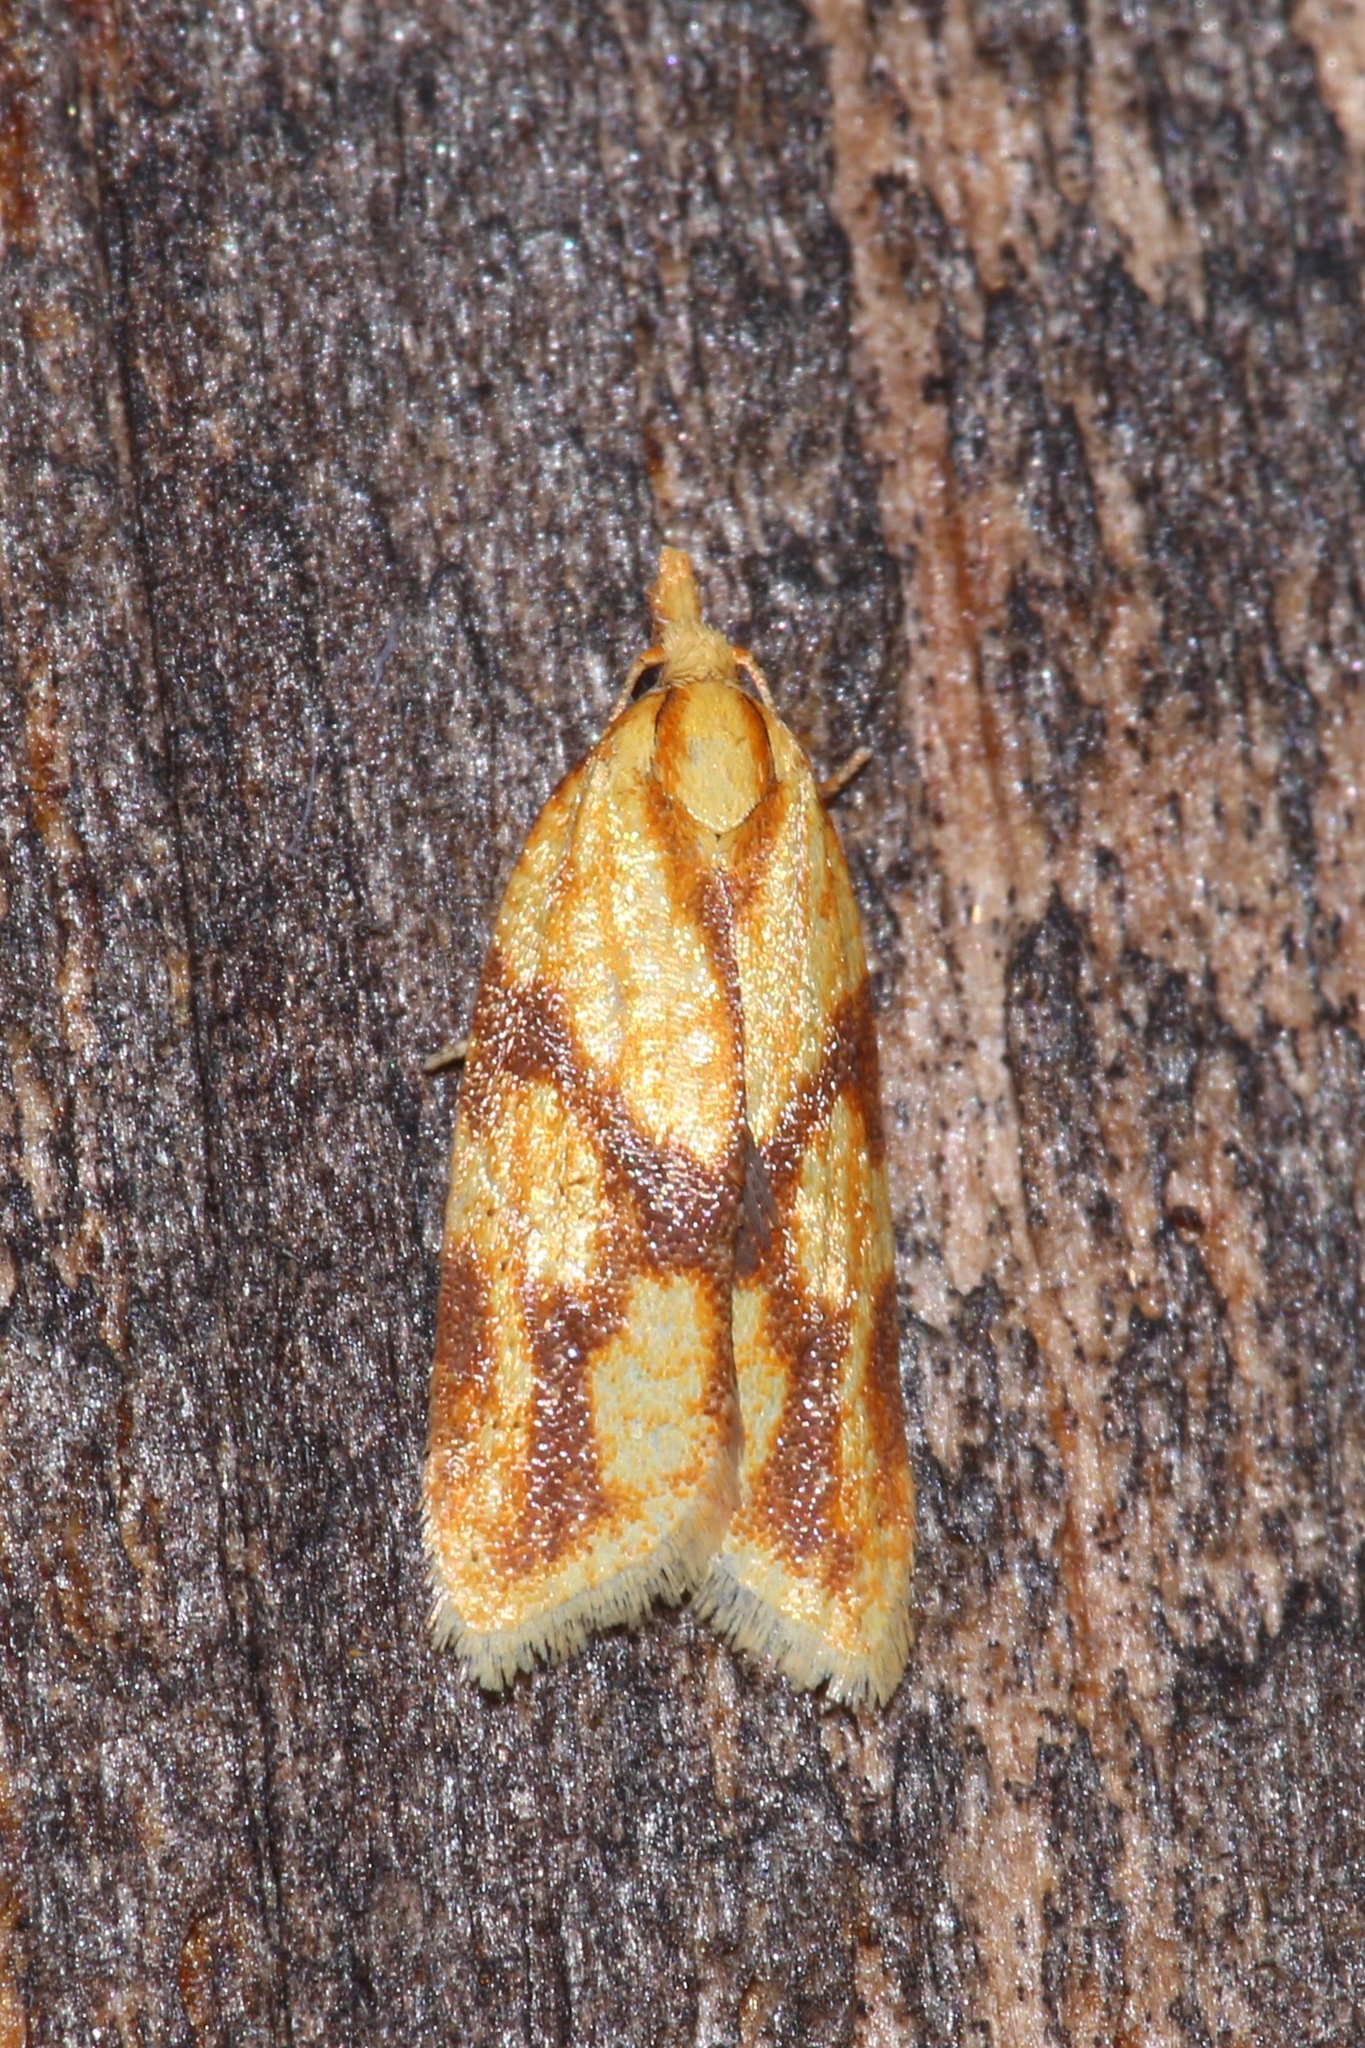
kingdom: Animalia
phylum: Arthropoda
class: Insecta
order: Lepidoptera
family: Tortricidae
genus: Sparganothis
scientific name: Sparganothis sulfureana
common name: Sparganothis fruitworm moth
